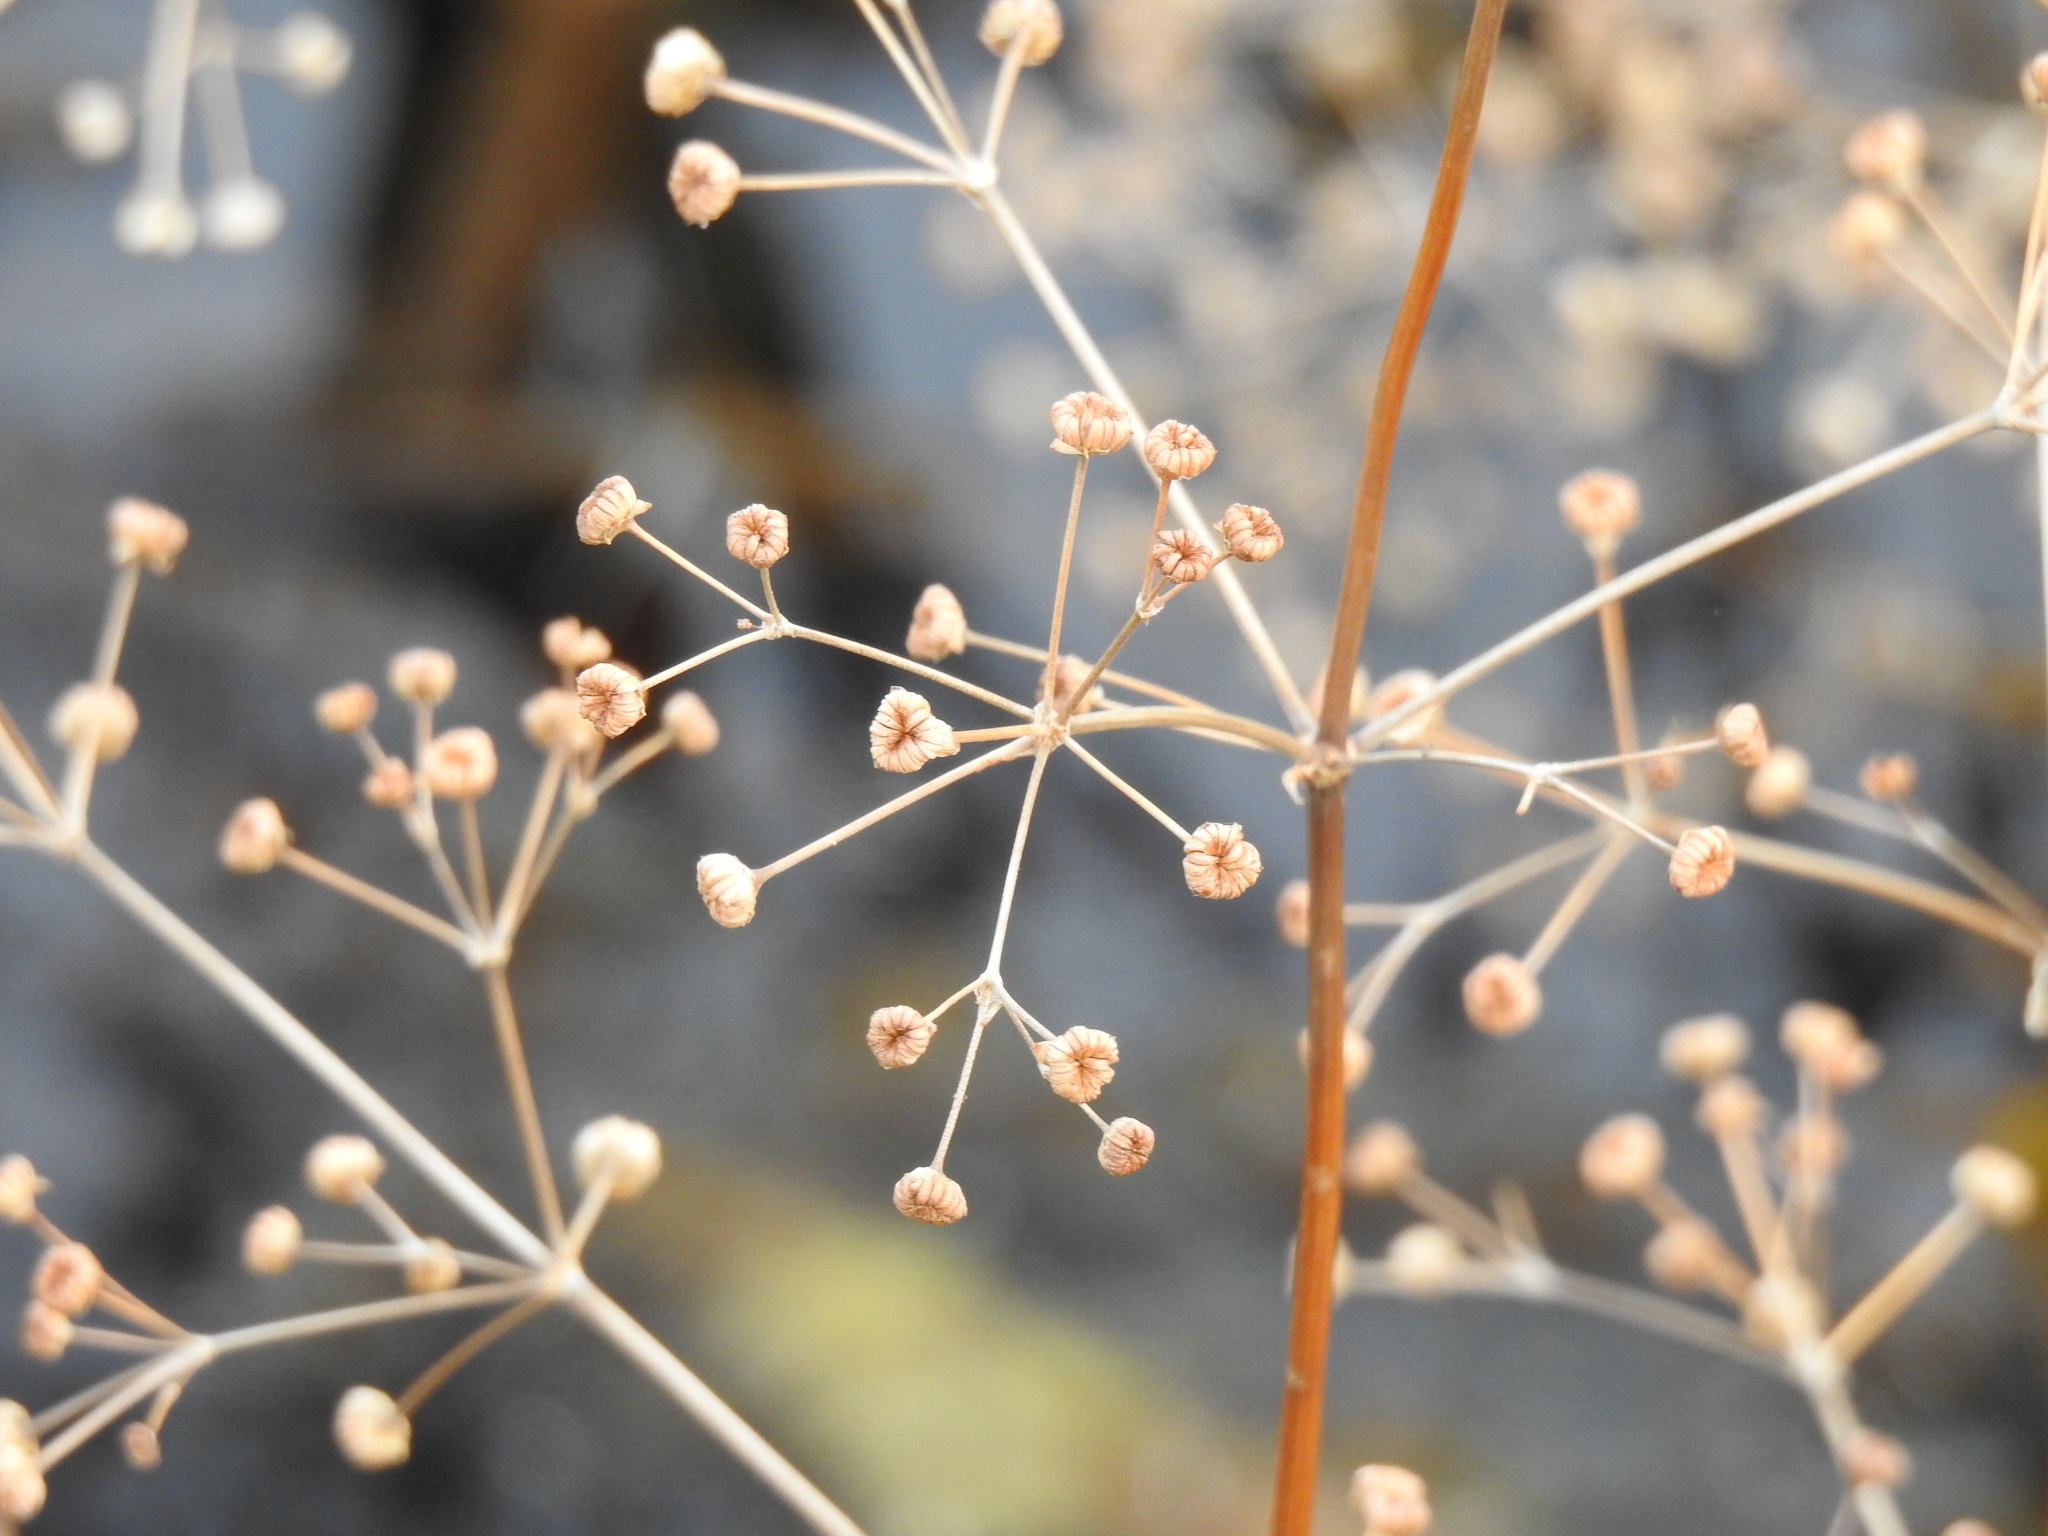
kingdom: Plantae
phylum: Tracheophyta
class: Liliopsida
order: Alismatales
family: Alismataceae
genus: Alisma
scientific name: Alisma lanceolatum
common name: Narrow-leaved water-plantain
